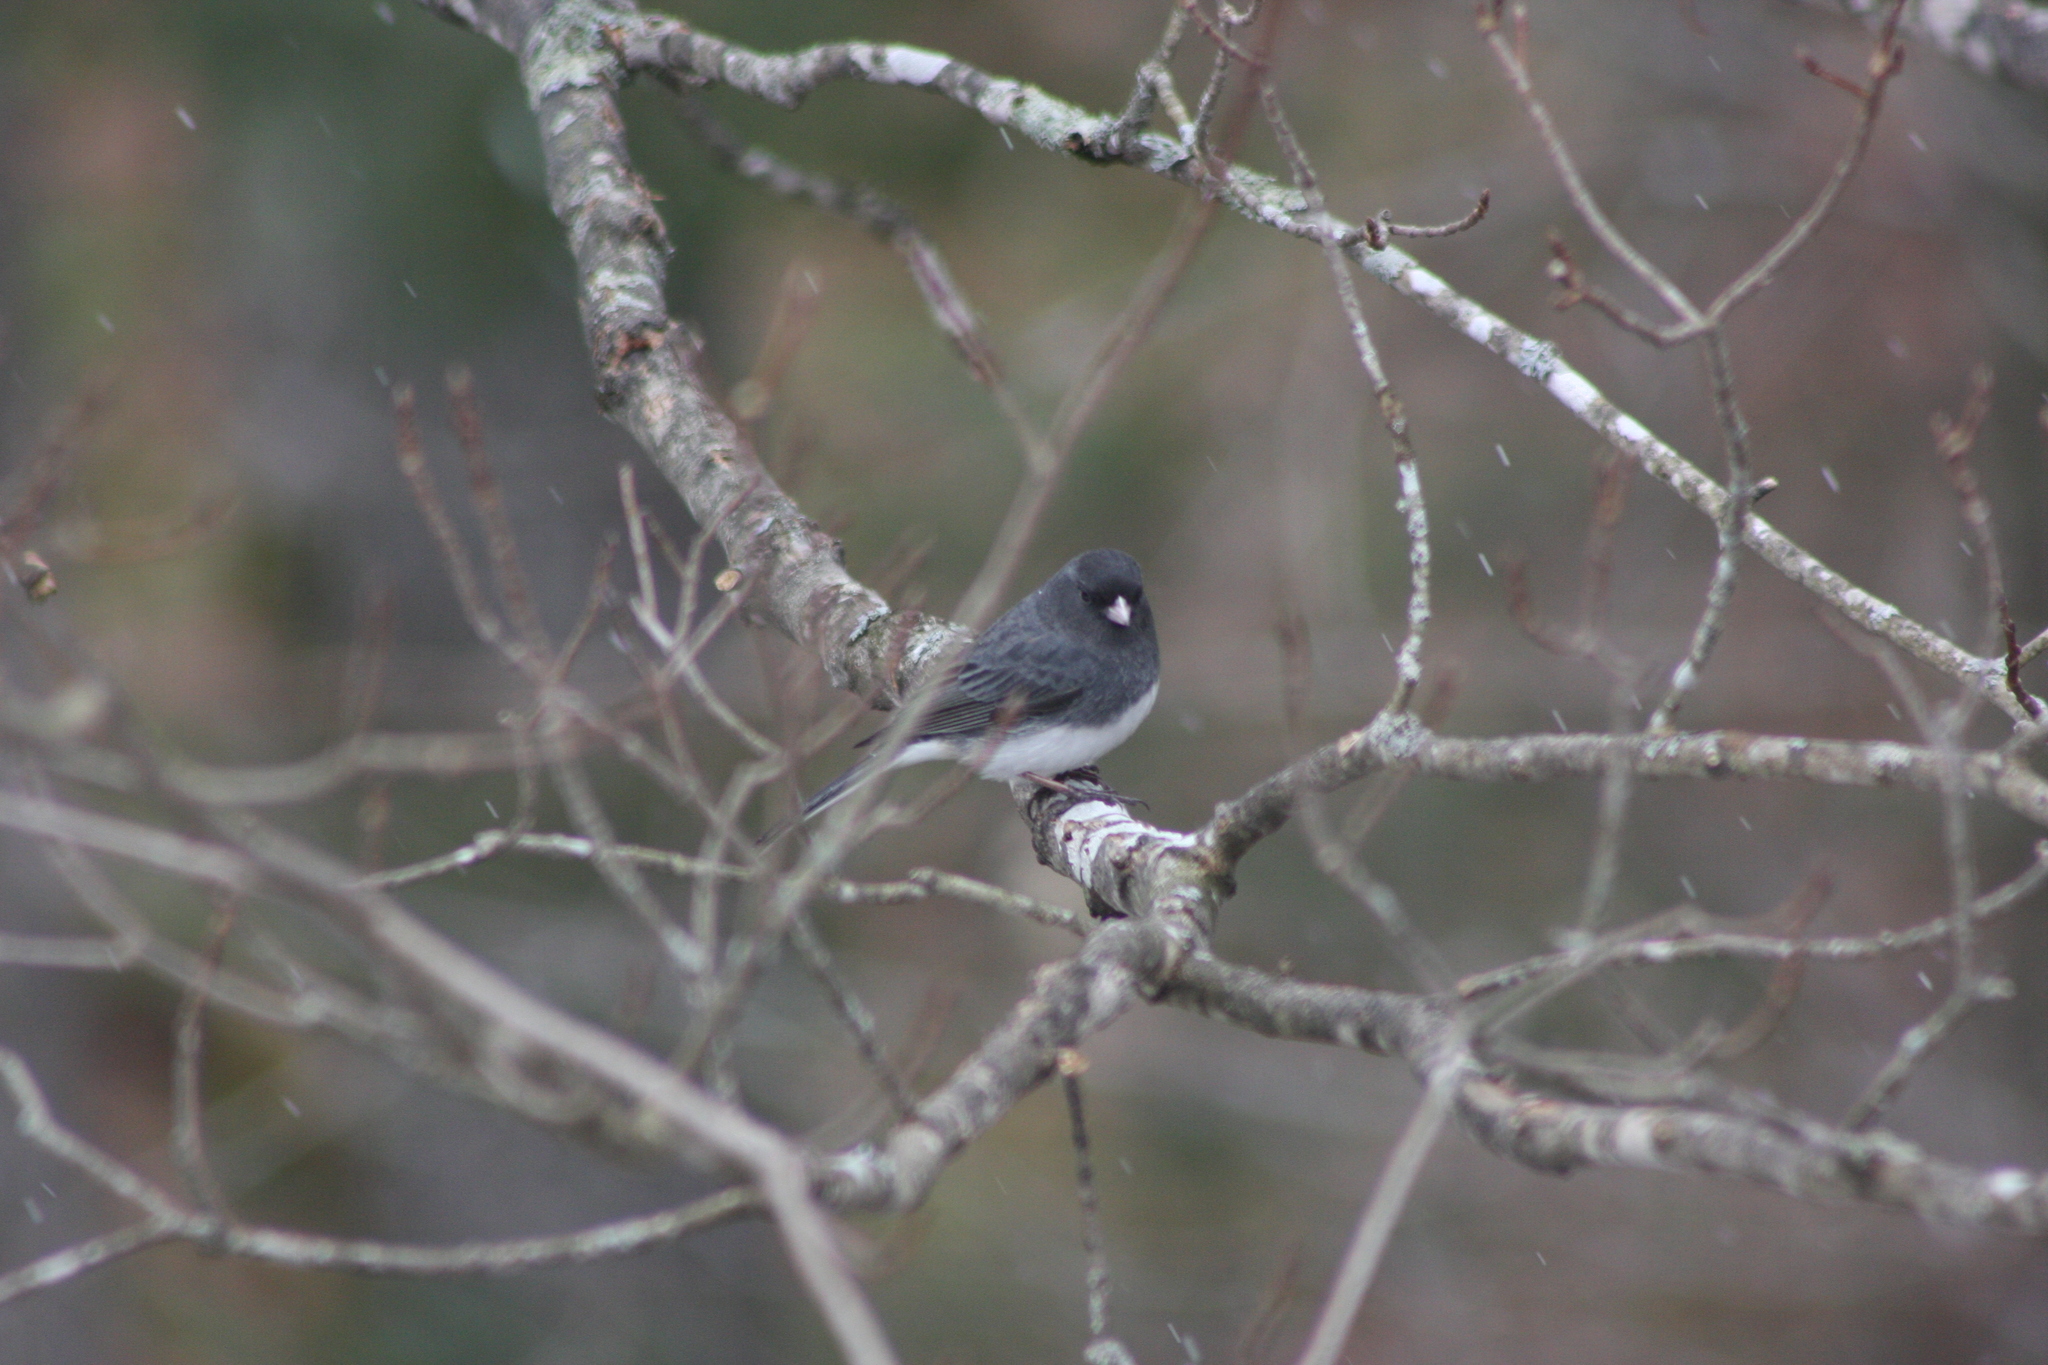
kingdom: Animalia
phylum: Chordata
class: Aves
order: Passeriformes
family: Passerellidae
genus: Junco
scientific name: Junco hyemalis
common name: Dark-eyed junco
